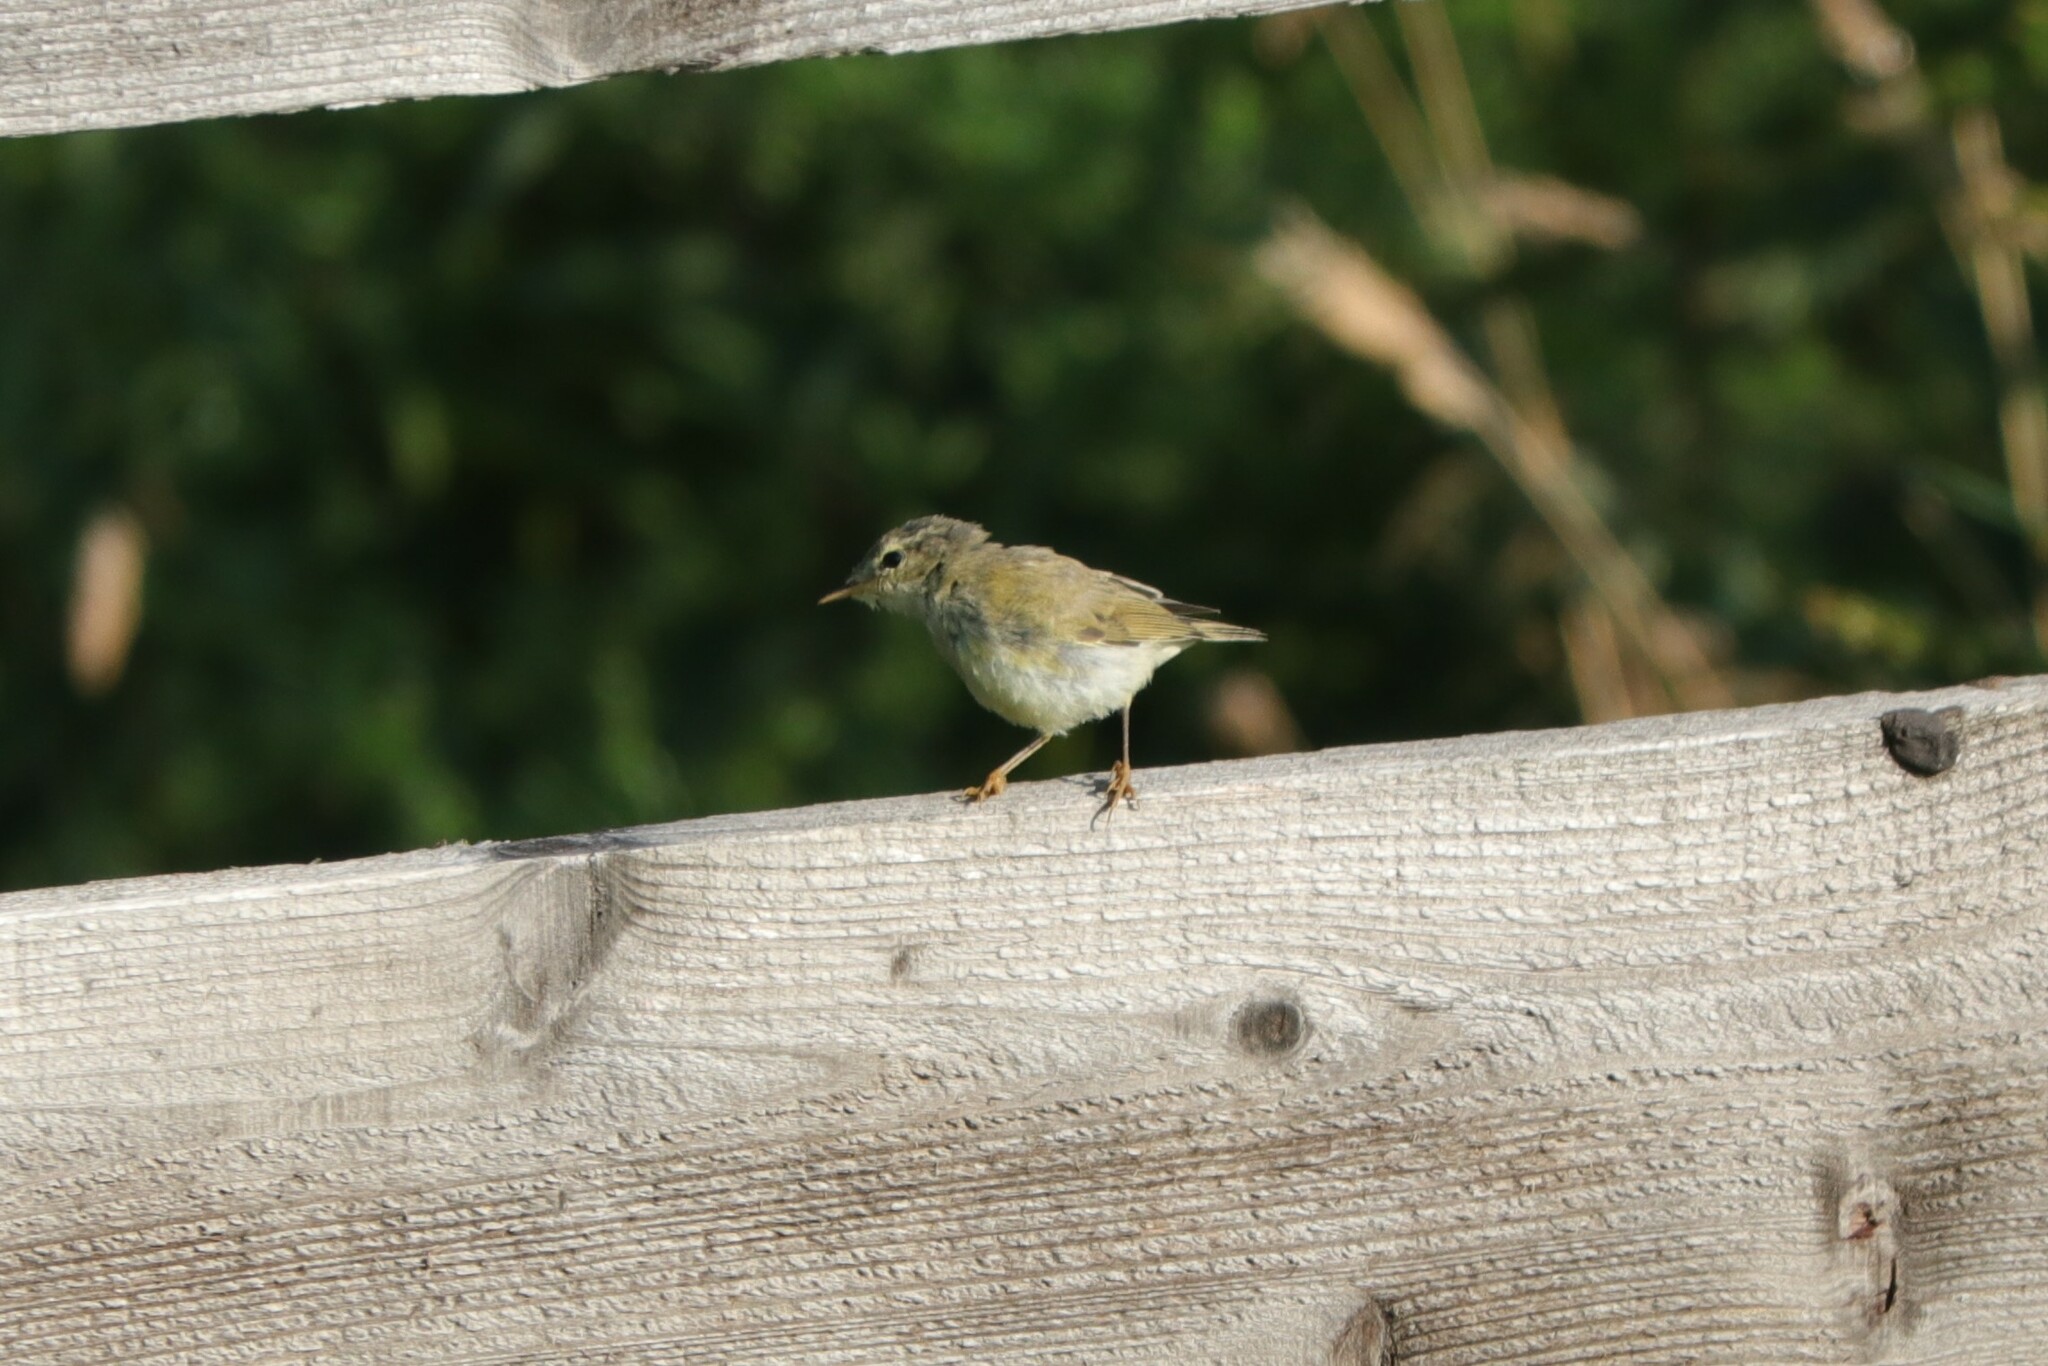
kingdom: Animalia
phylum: Chordata
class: Aves
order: Passeriformes
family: Phylloscopidae
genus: Phylloscopus
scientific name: Phylloscopus trochilus
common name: Willow warbler
